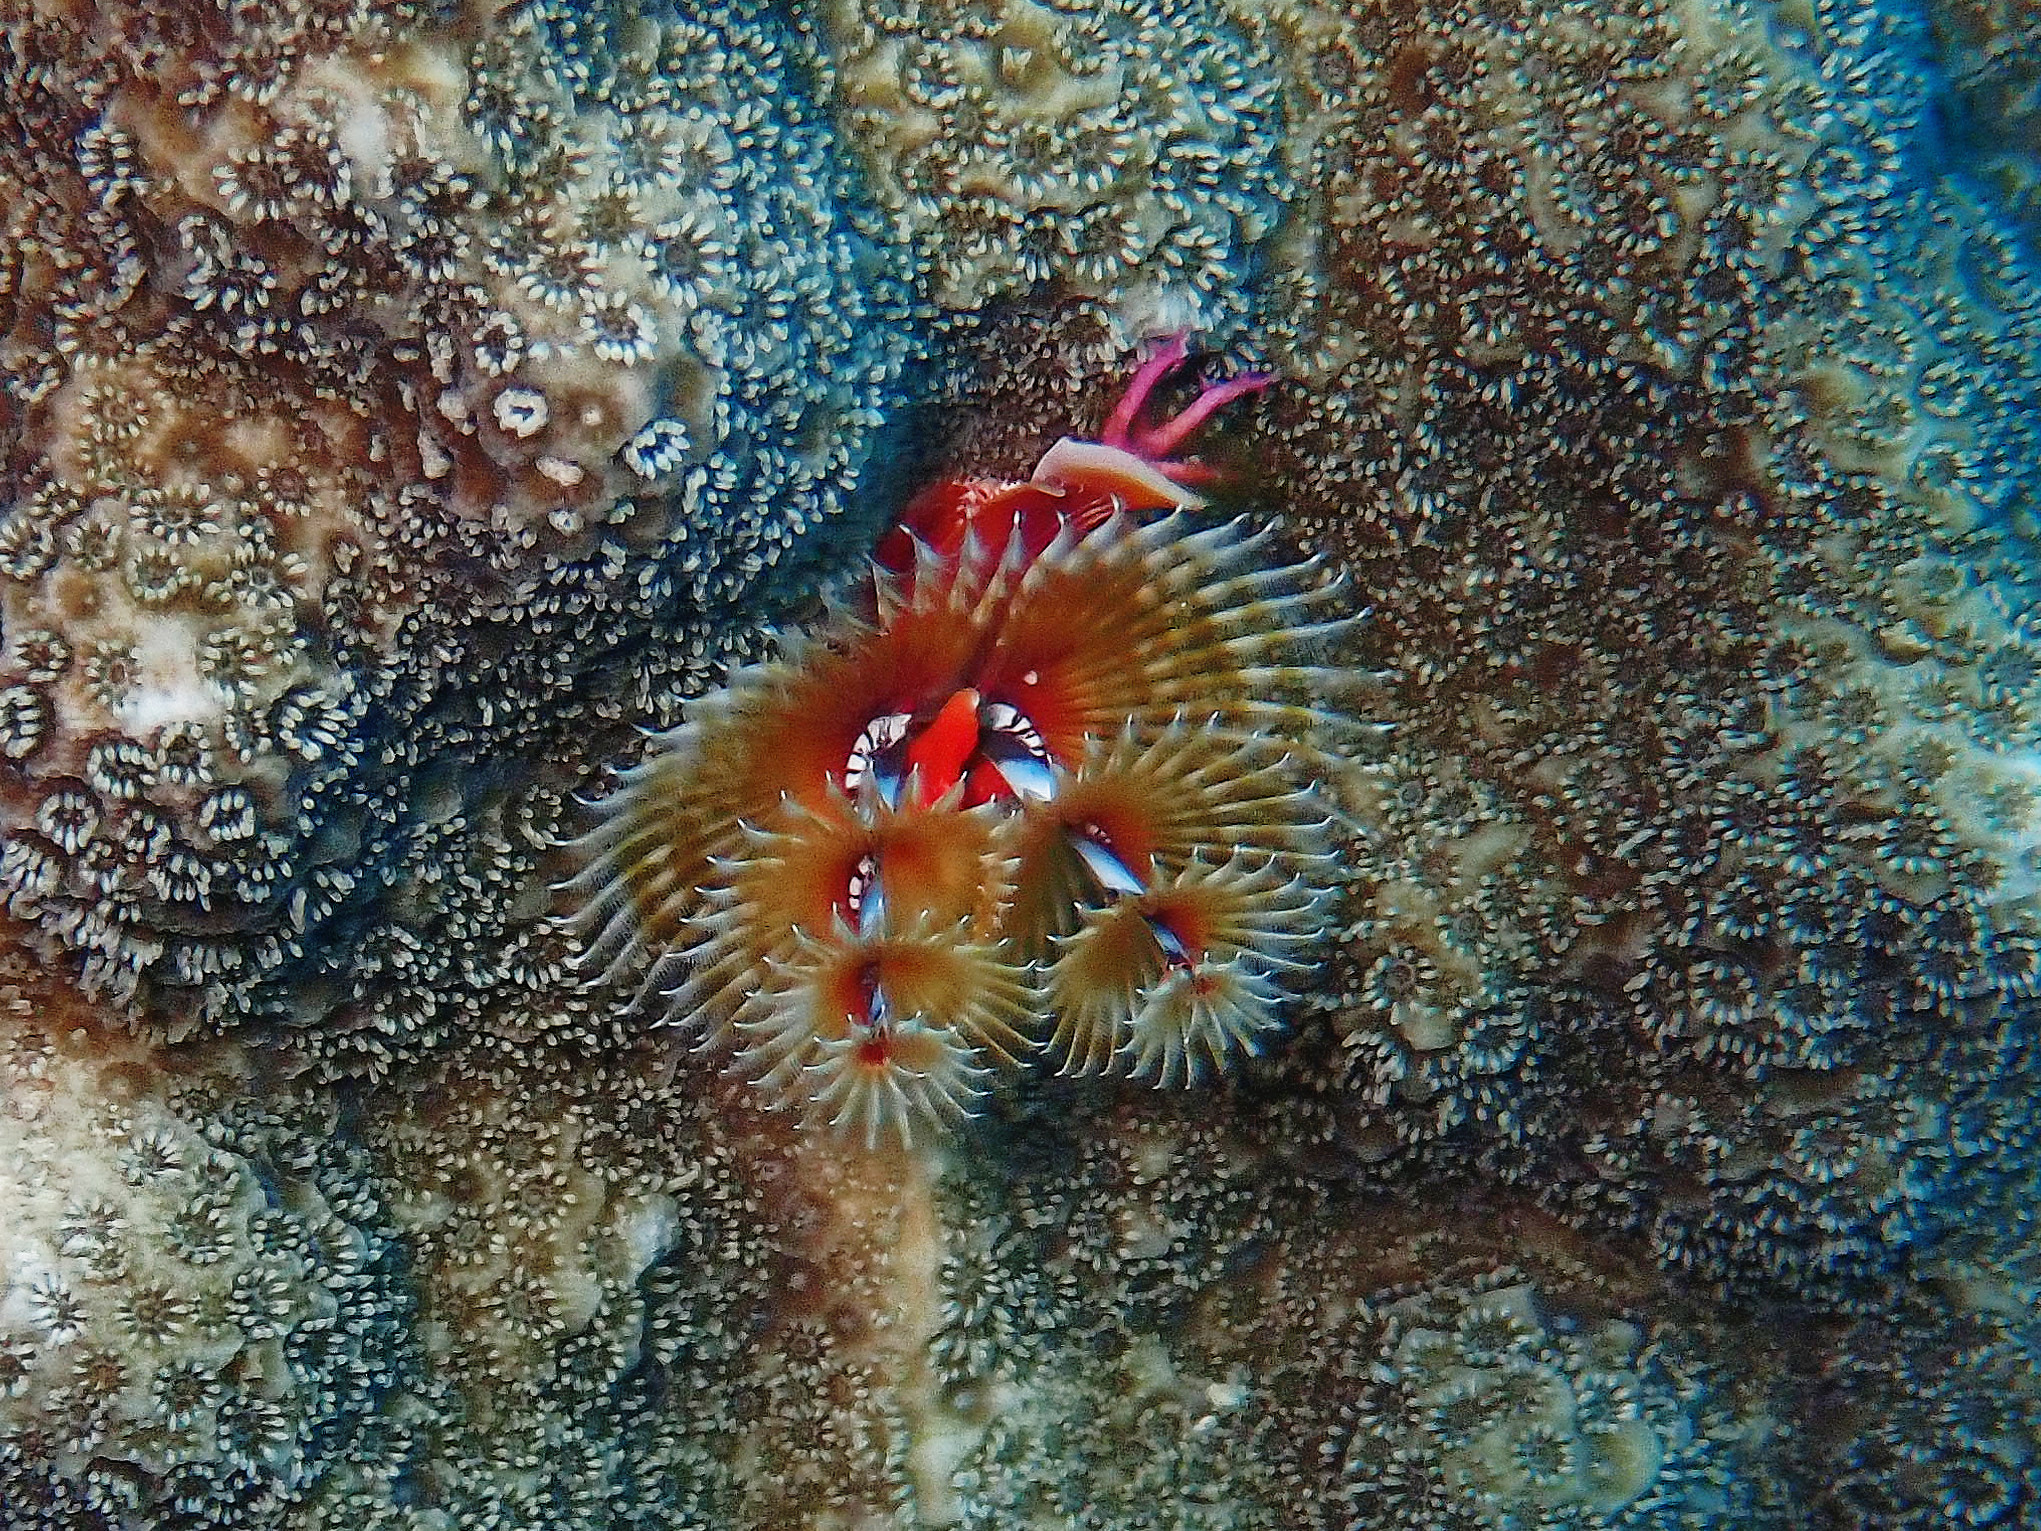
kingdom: Animalia
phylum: Annelida
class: Polychaeta
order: Sabellida
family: Serpulidae
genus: Spirobranchus
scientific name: Spirobranchus giganteus
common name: Christmas tree worm
